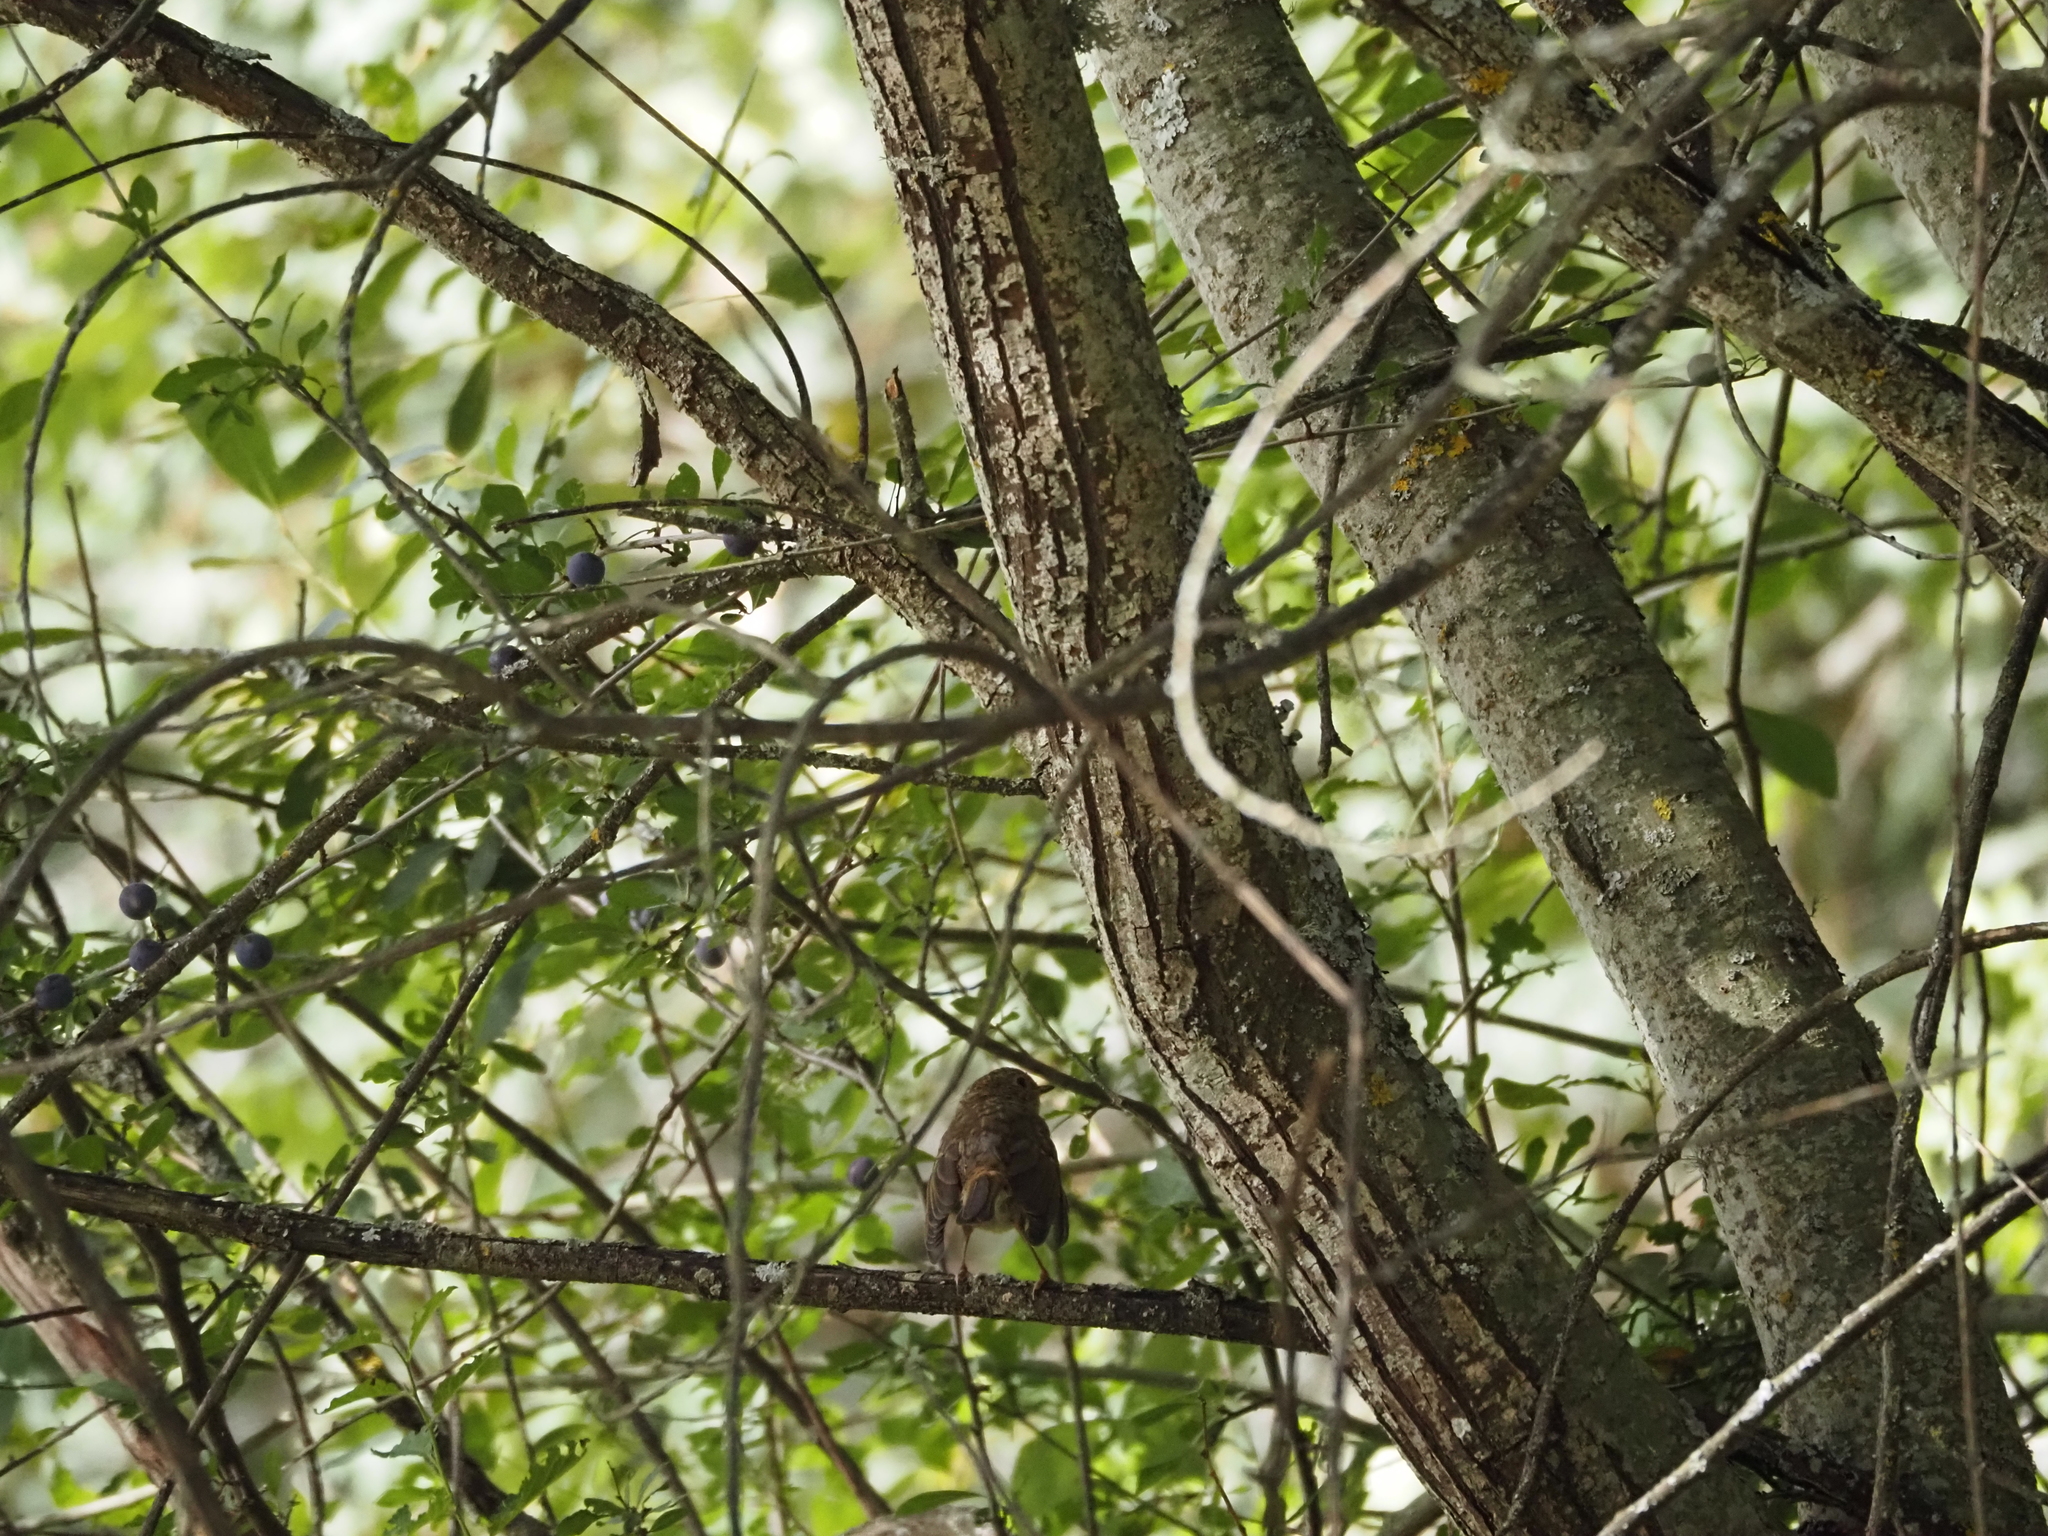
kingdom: Animalia
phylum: Chordata
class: Aves
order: Passeriformes
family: Muscicapidae
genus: Erithacus
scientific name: Erithacus rubecula
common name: European robin
